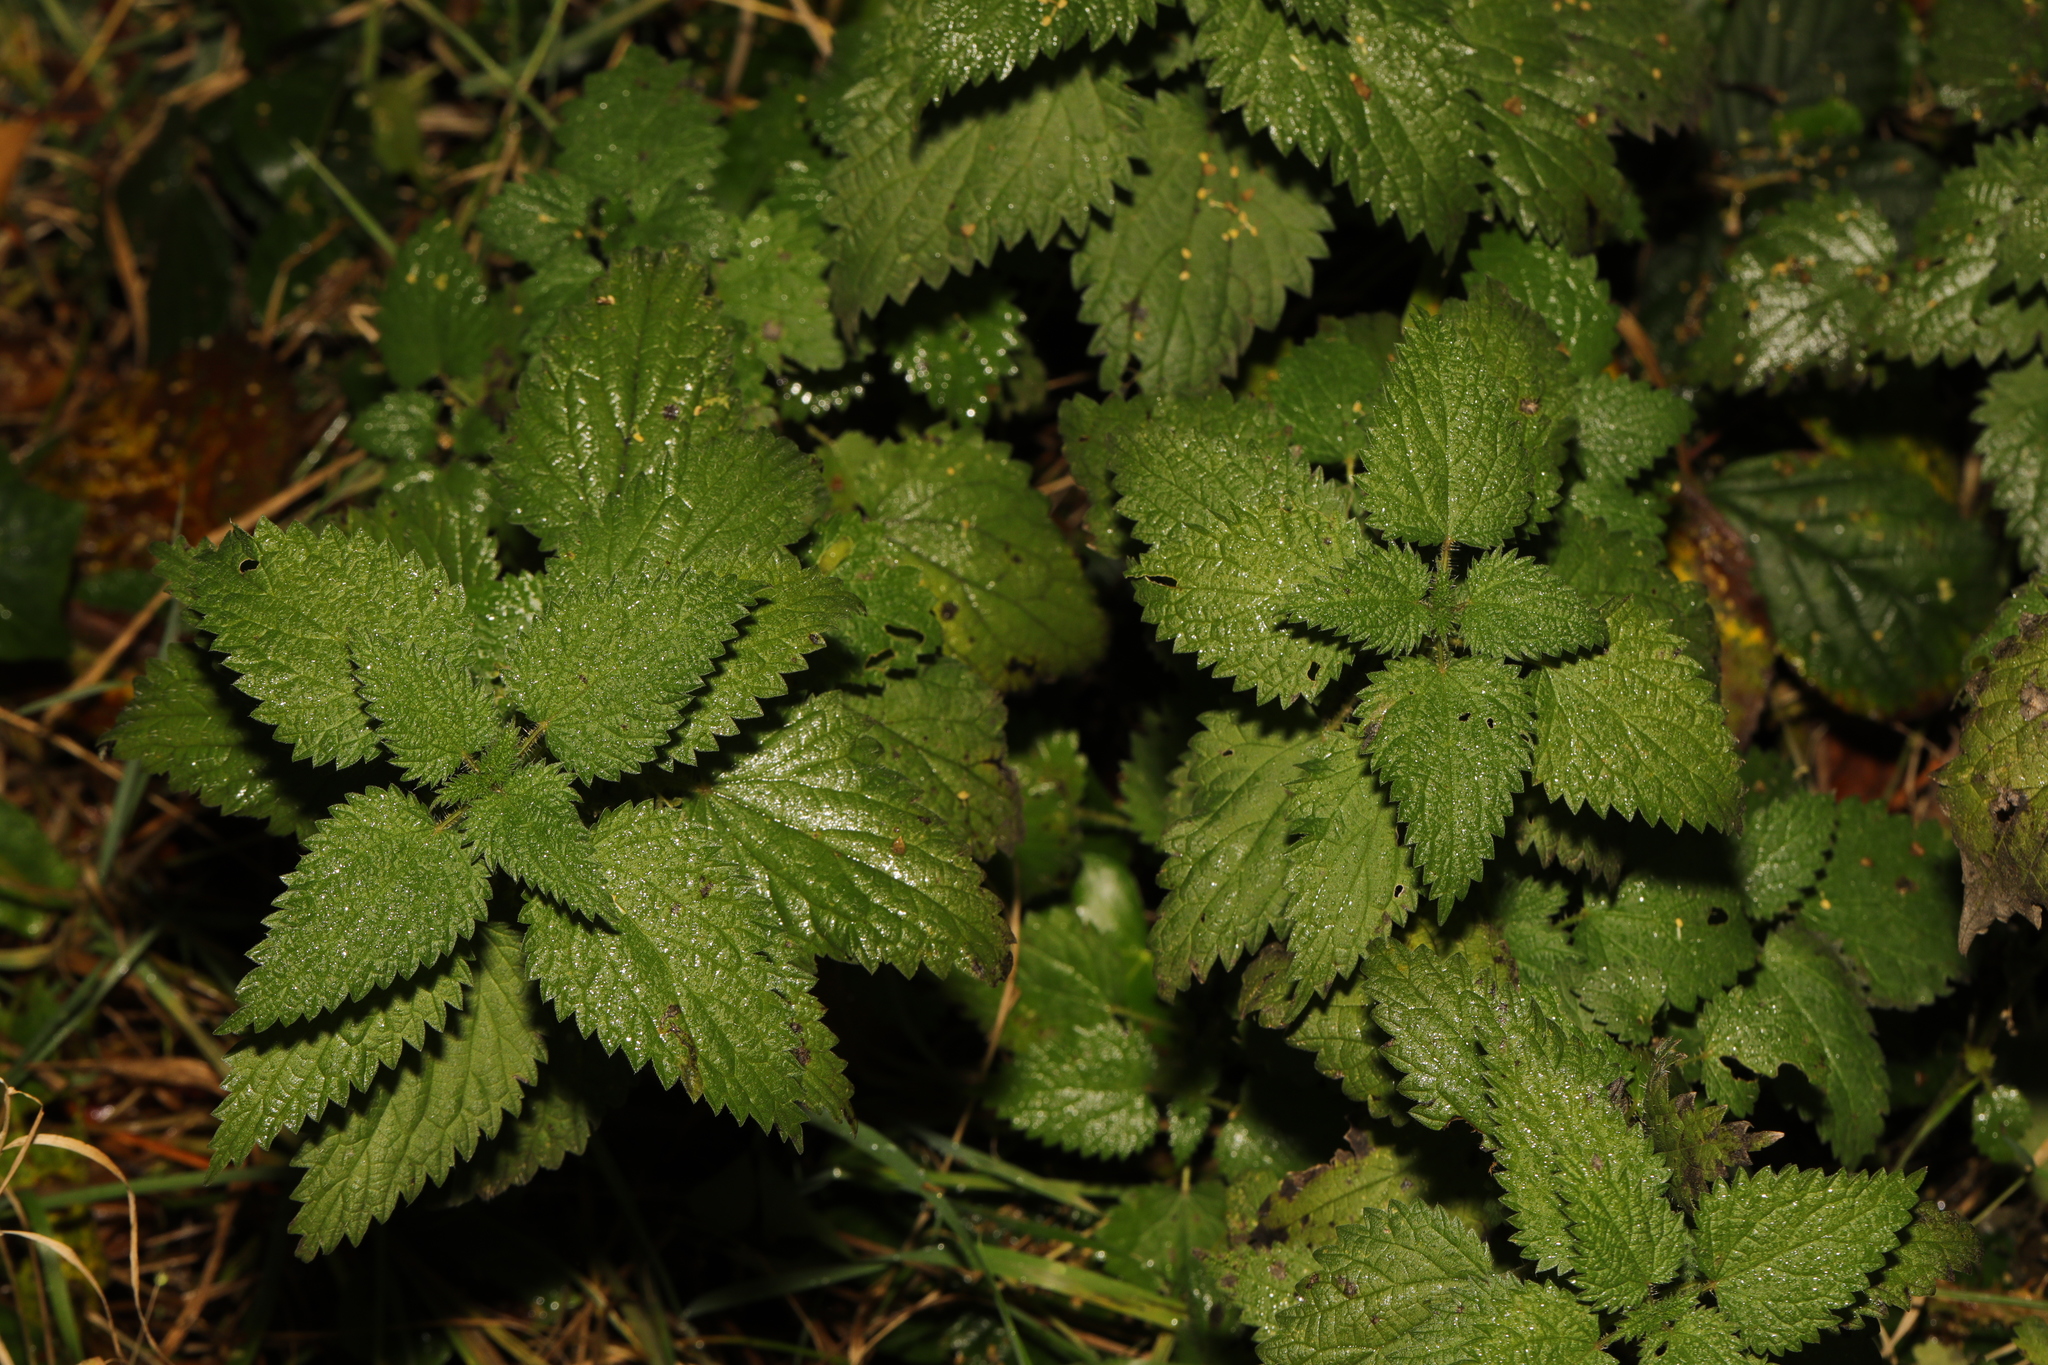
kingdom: Plantae
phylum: Tracheophyta
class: Magnoliopsida
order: Rosales
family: Urticaceae
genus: Urtica
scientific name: Urtica dioica
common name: Common nettle
